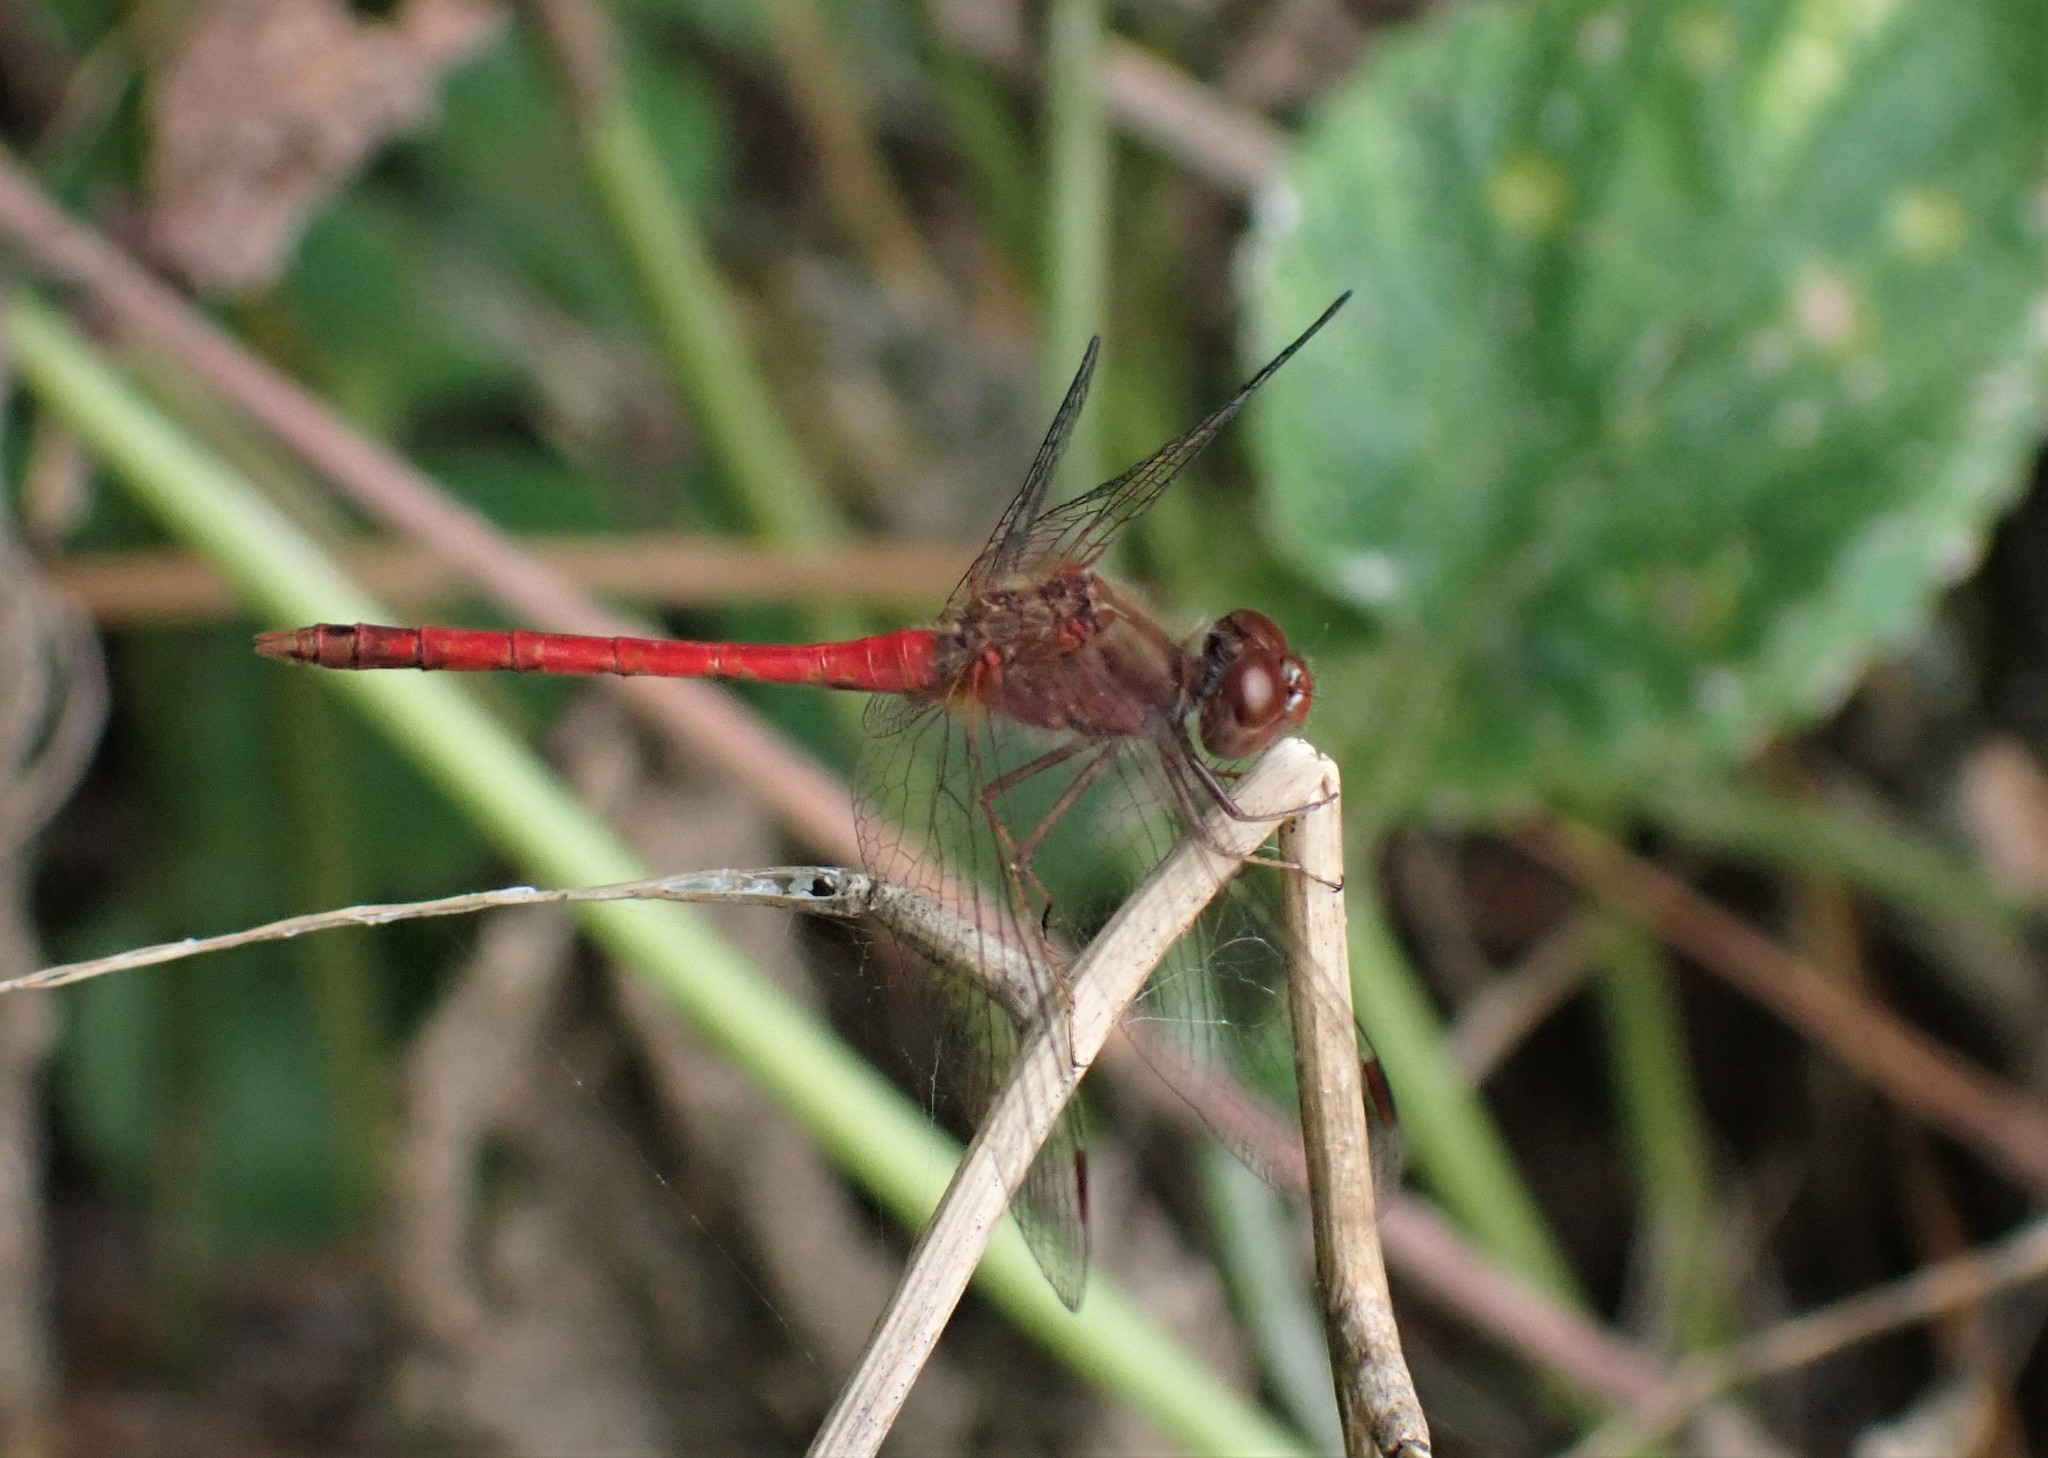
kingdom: Animalia
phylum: Arthropoda
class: Insecta
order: Odonata
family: Libellulidae
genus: Sympetrum
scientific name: Sympetrum vicinum
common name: Autumn meadowhawk
